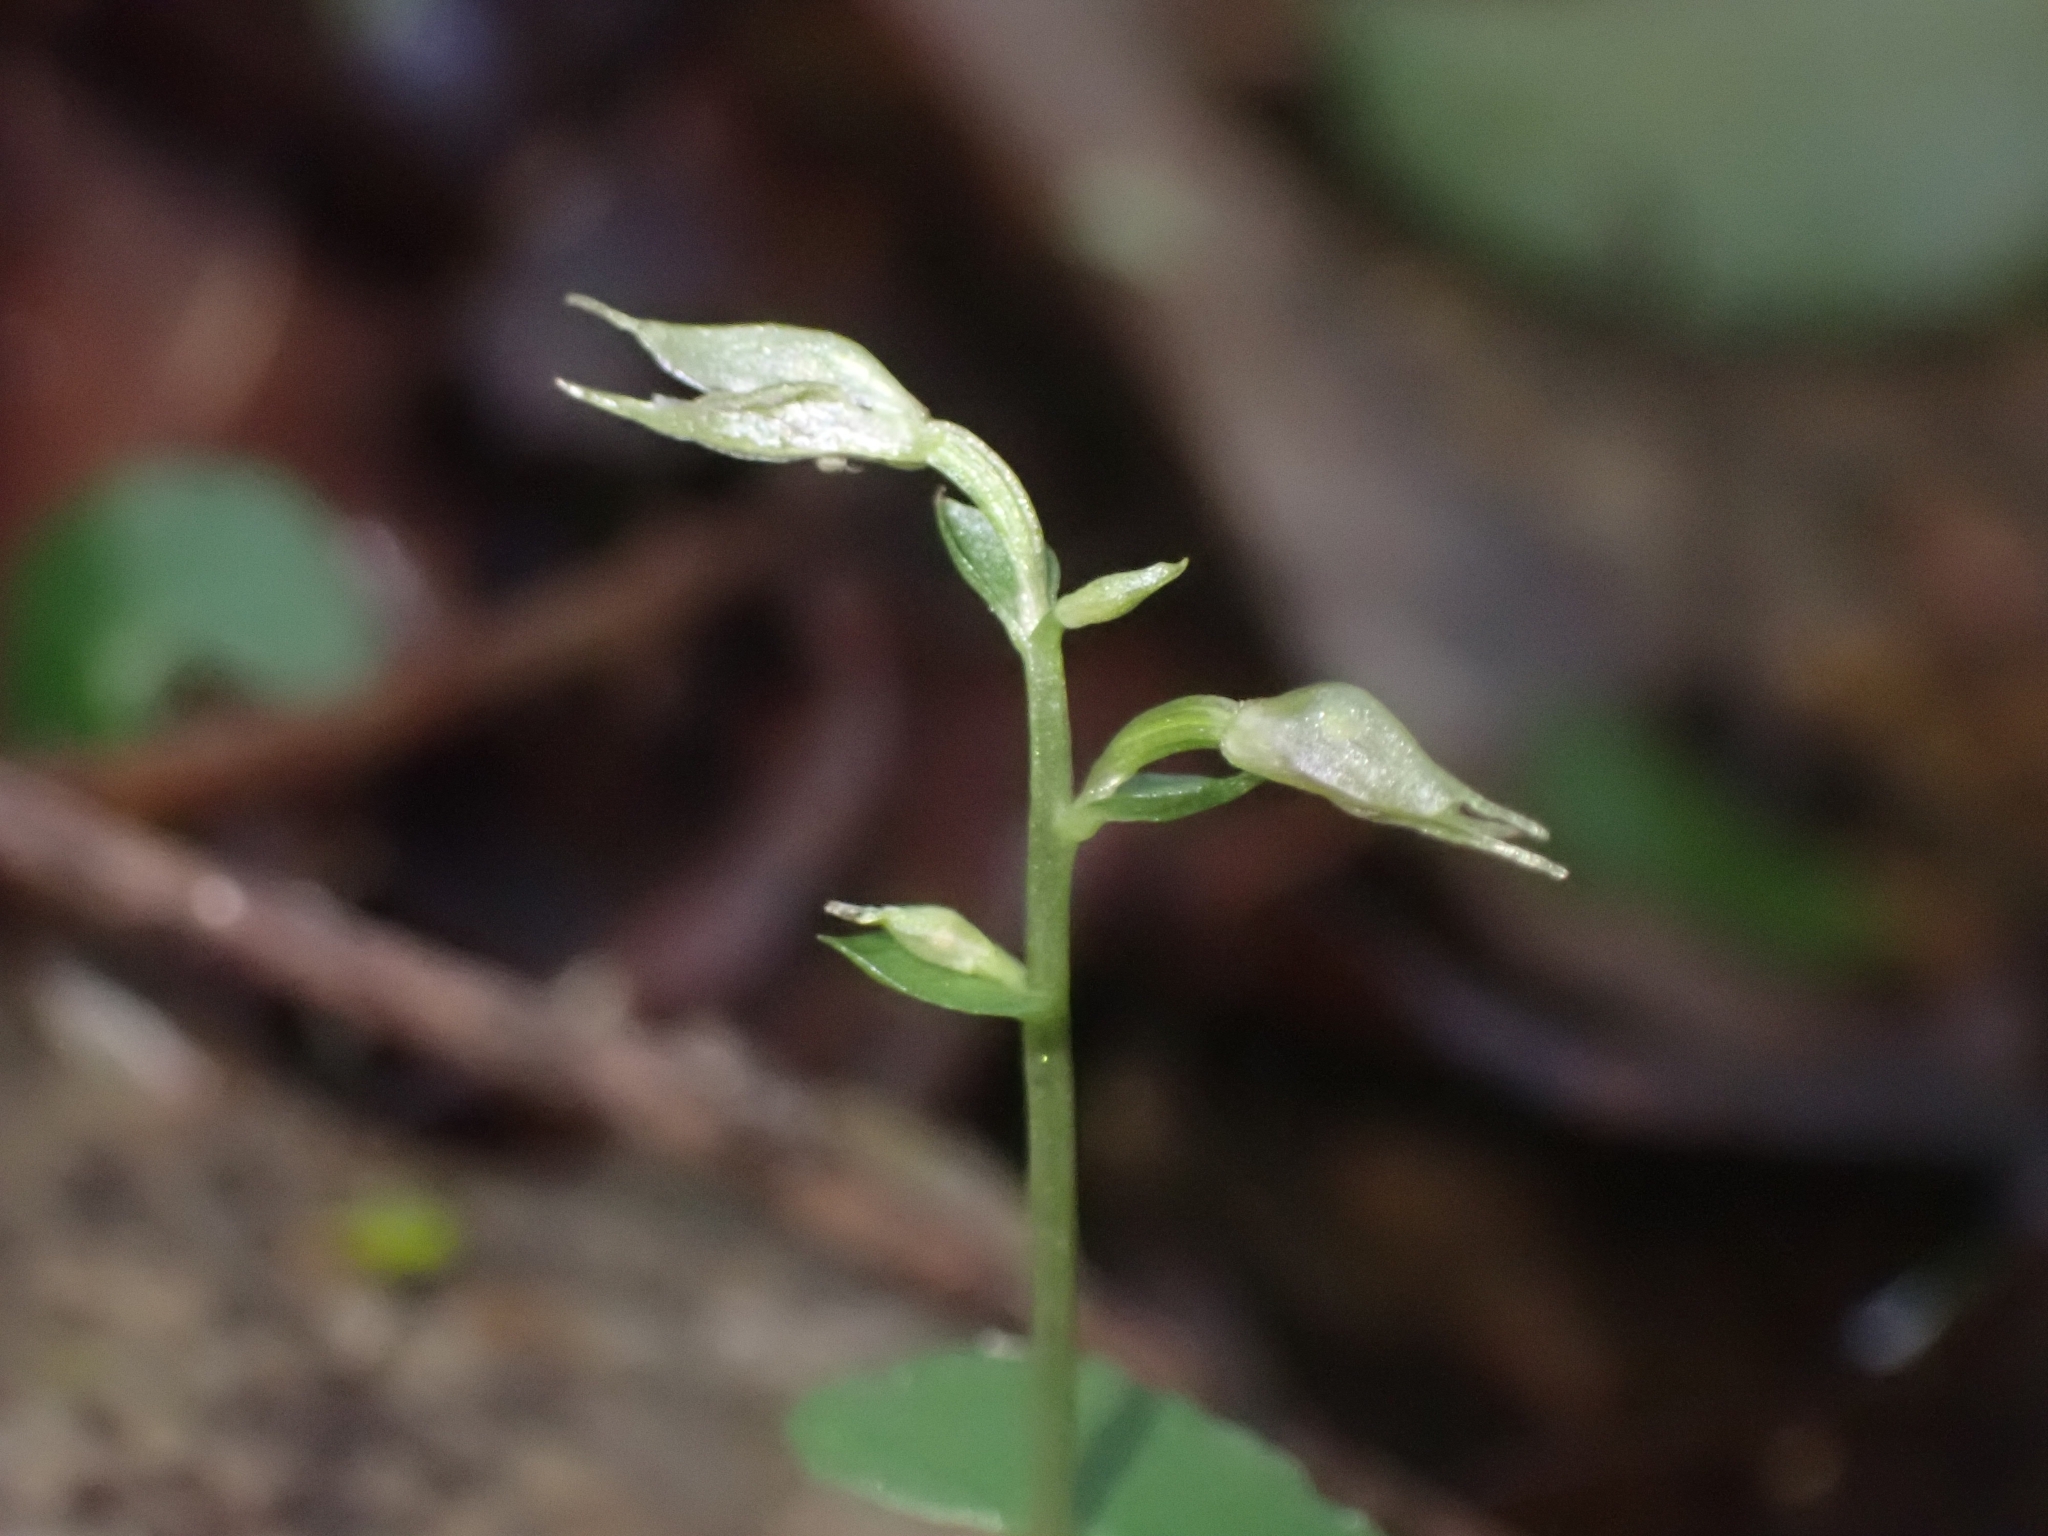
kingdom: Plantae
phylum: Tracheophyta
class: Liliopsida
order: Asparagales
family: Orchidaceae
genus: Acianthus
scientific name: Acianthus sinclairii
